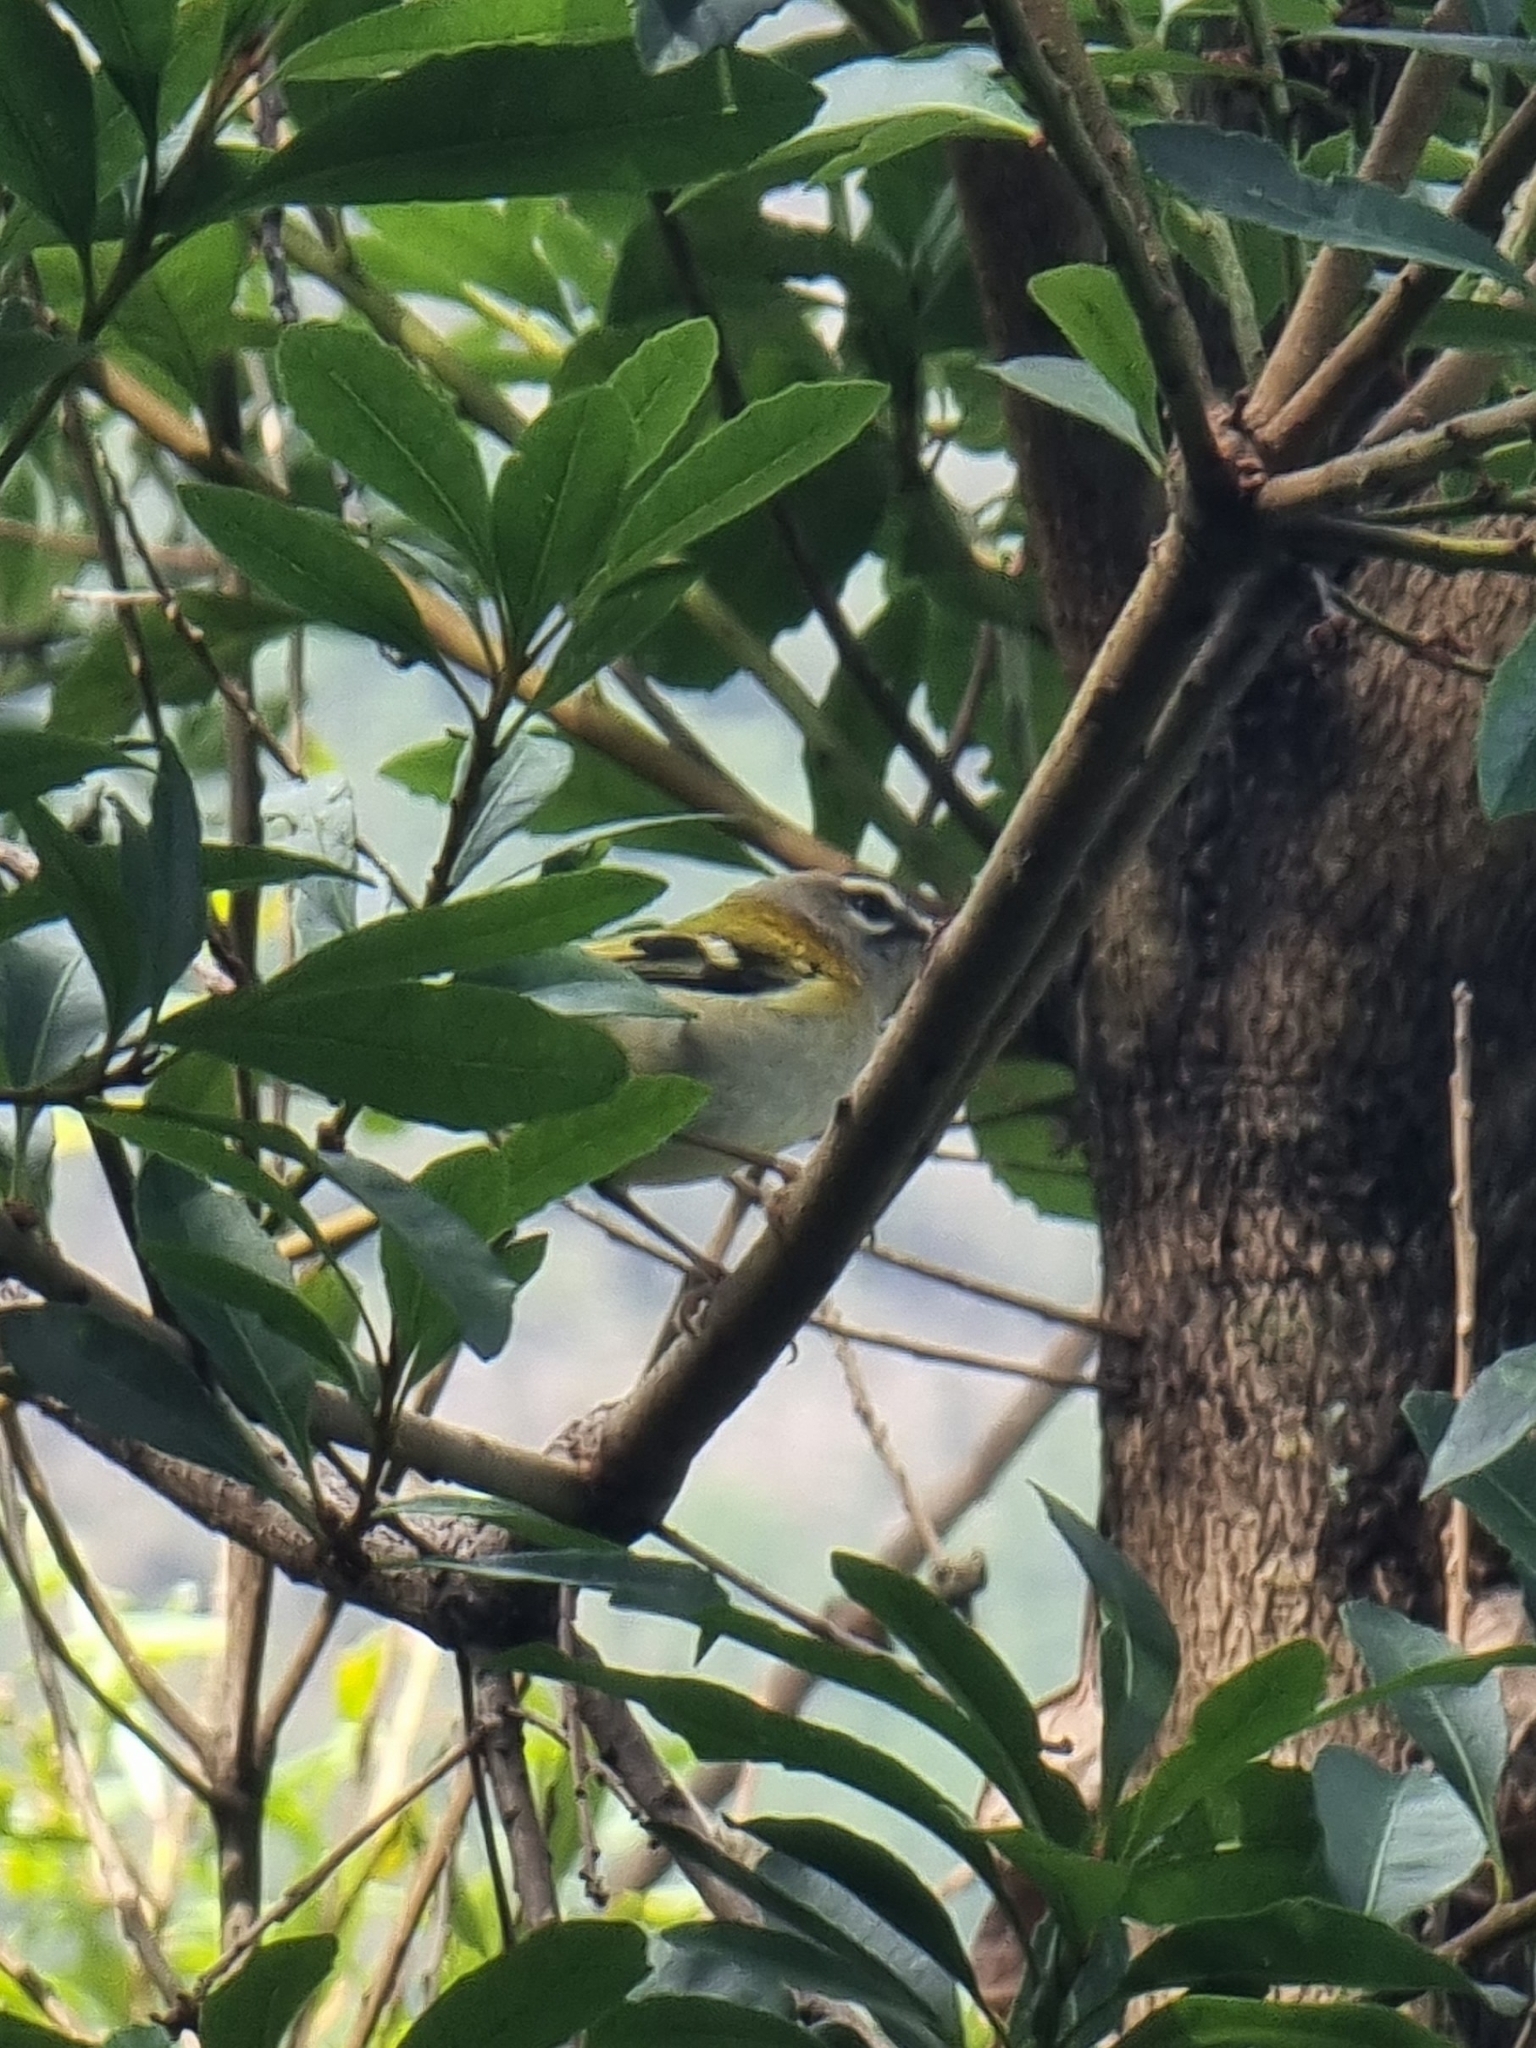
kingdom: Animalia
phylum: Chordata
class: Aves
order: Passeriformes
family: Regulidae
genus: Regulus
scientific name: Regulus madeirensis
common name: Madeira firecrest
